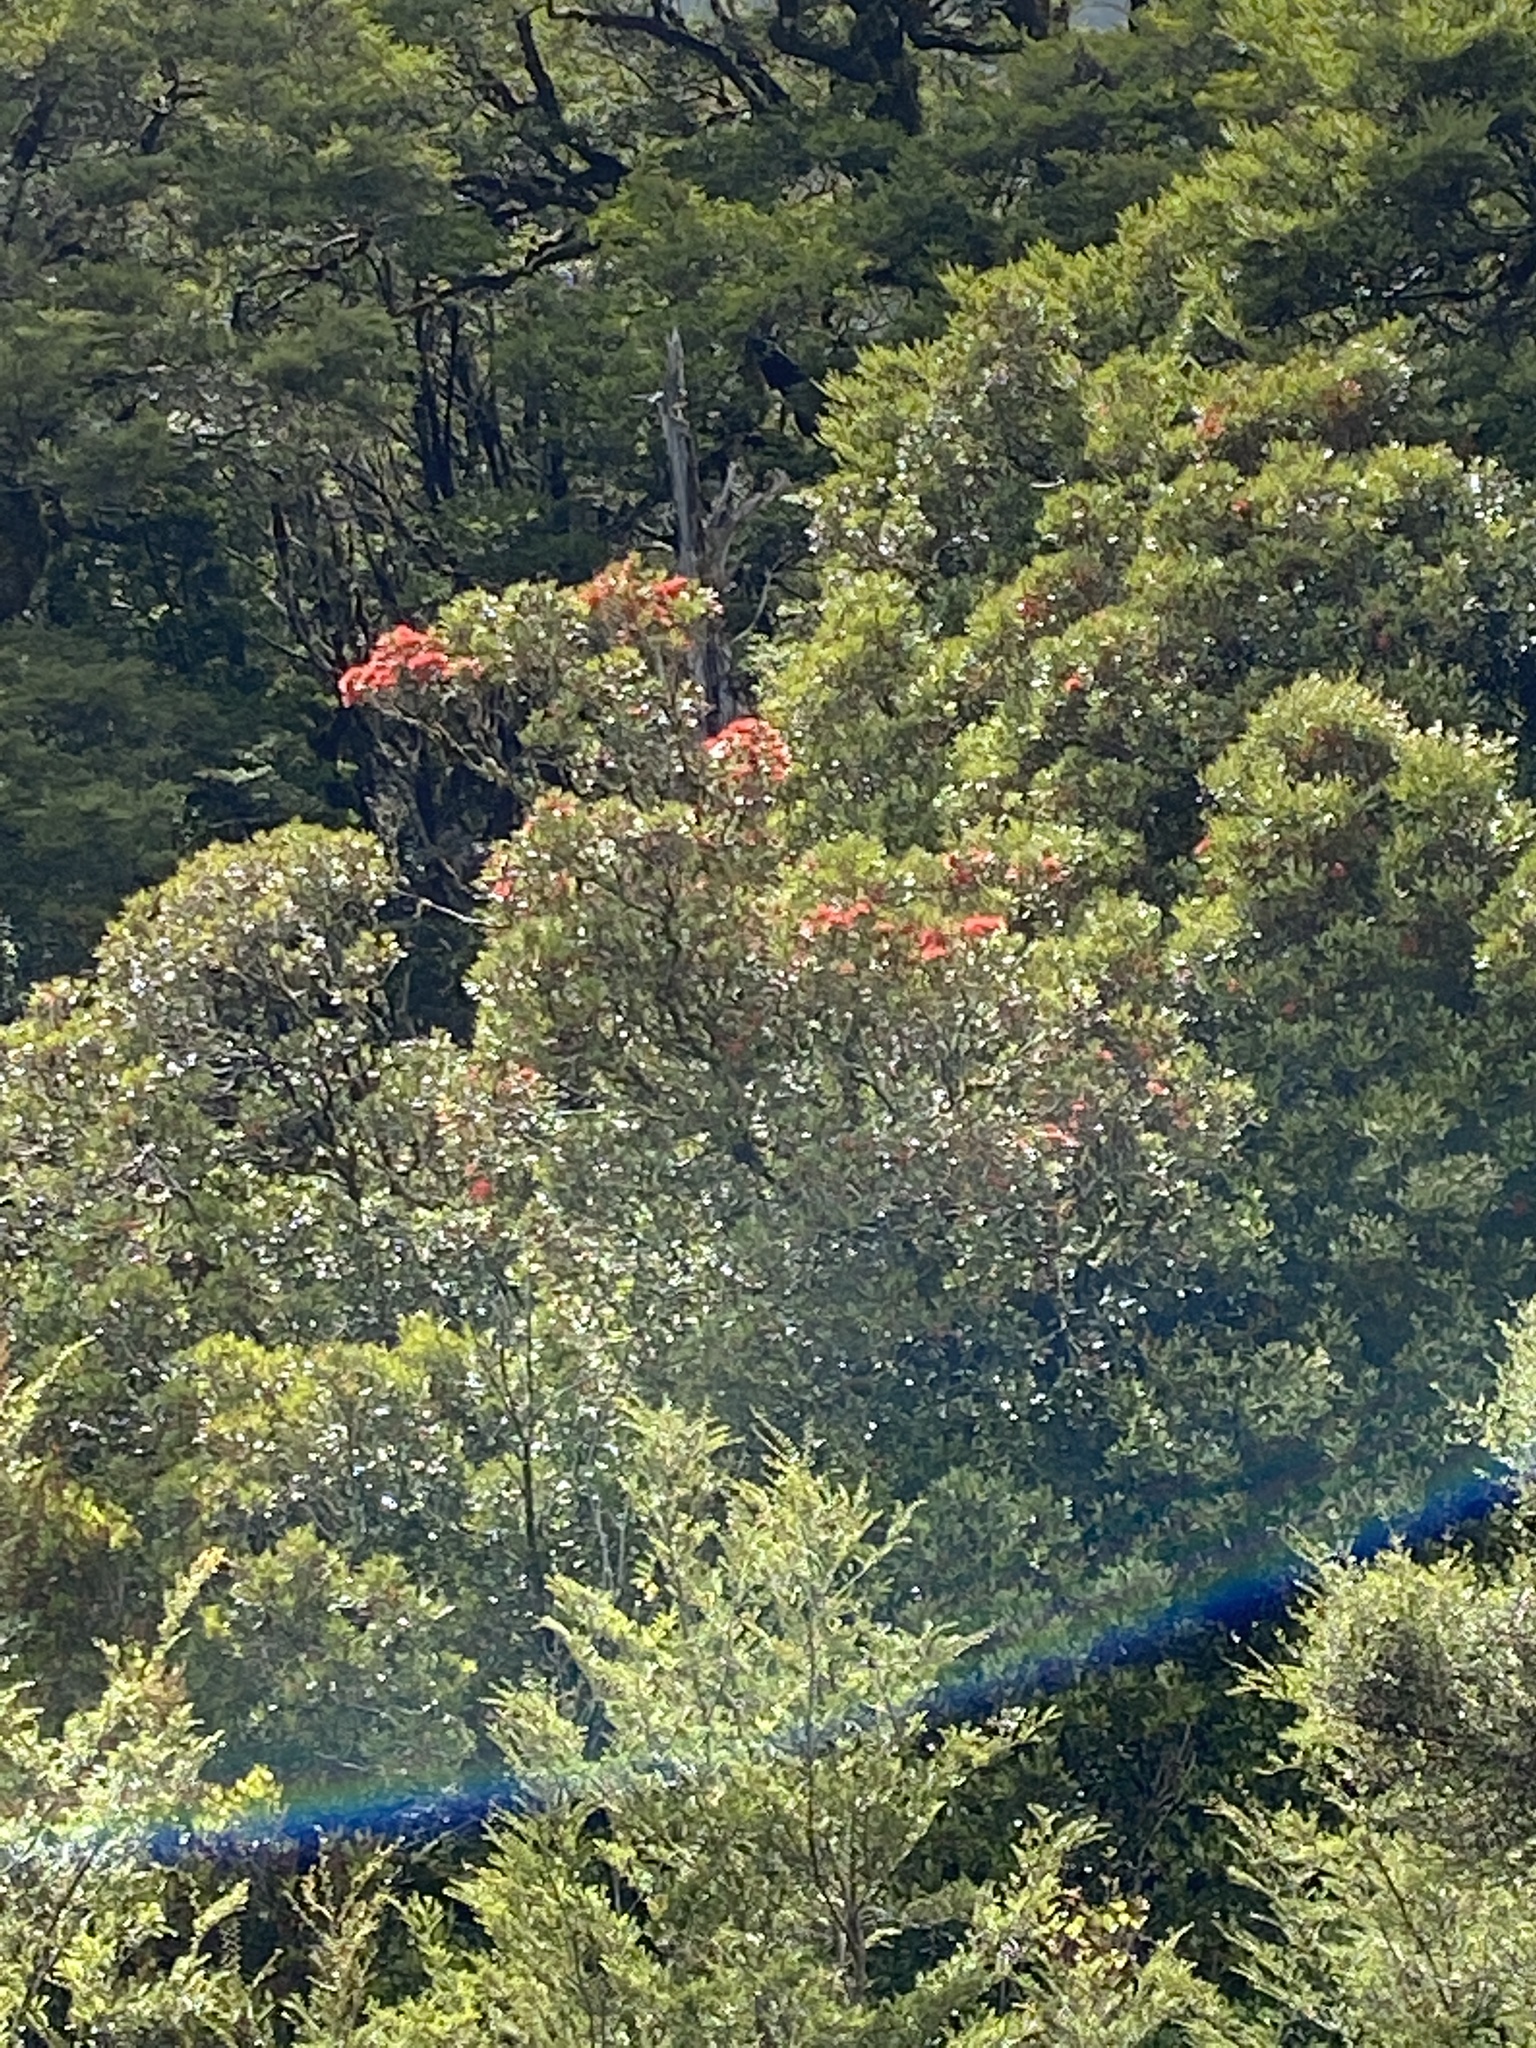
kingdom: Plantae
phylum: Tracheophyta
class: Magnoliopsida
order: Myrtales
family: Myrtaceae
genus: Metrosideros
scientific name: Metrosideros umbellata
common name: Southern rata
